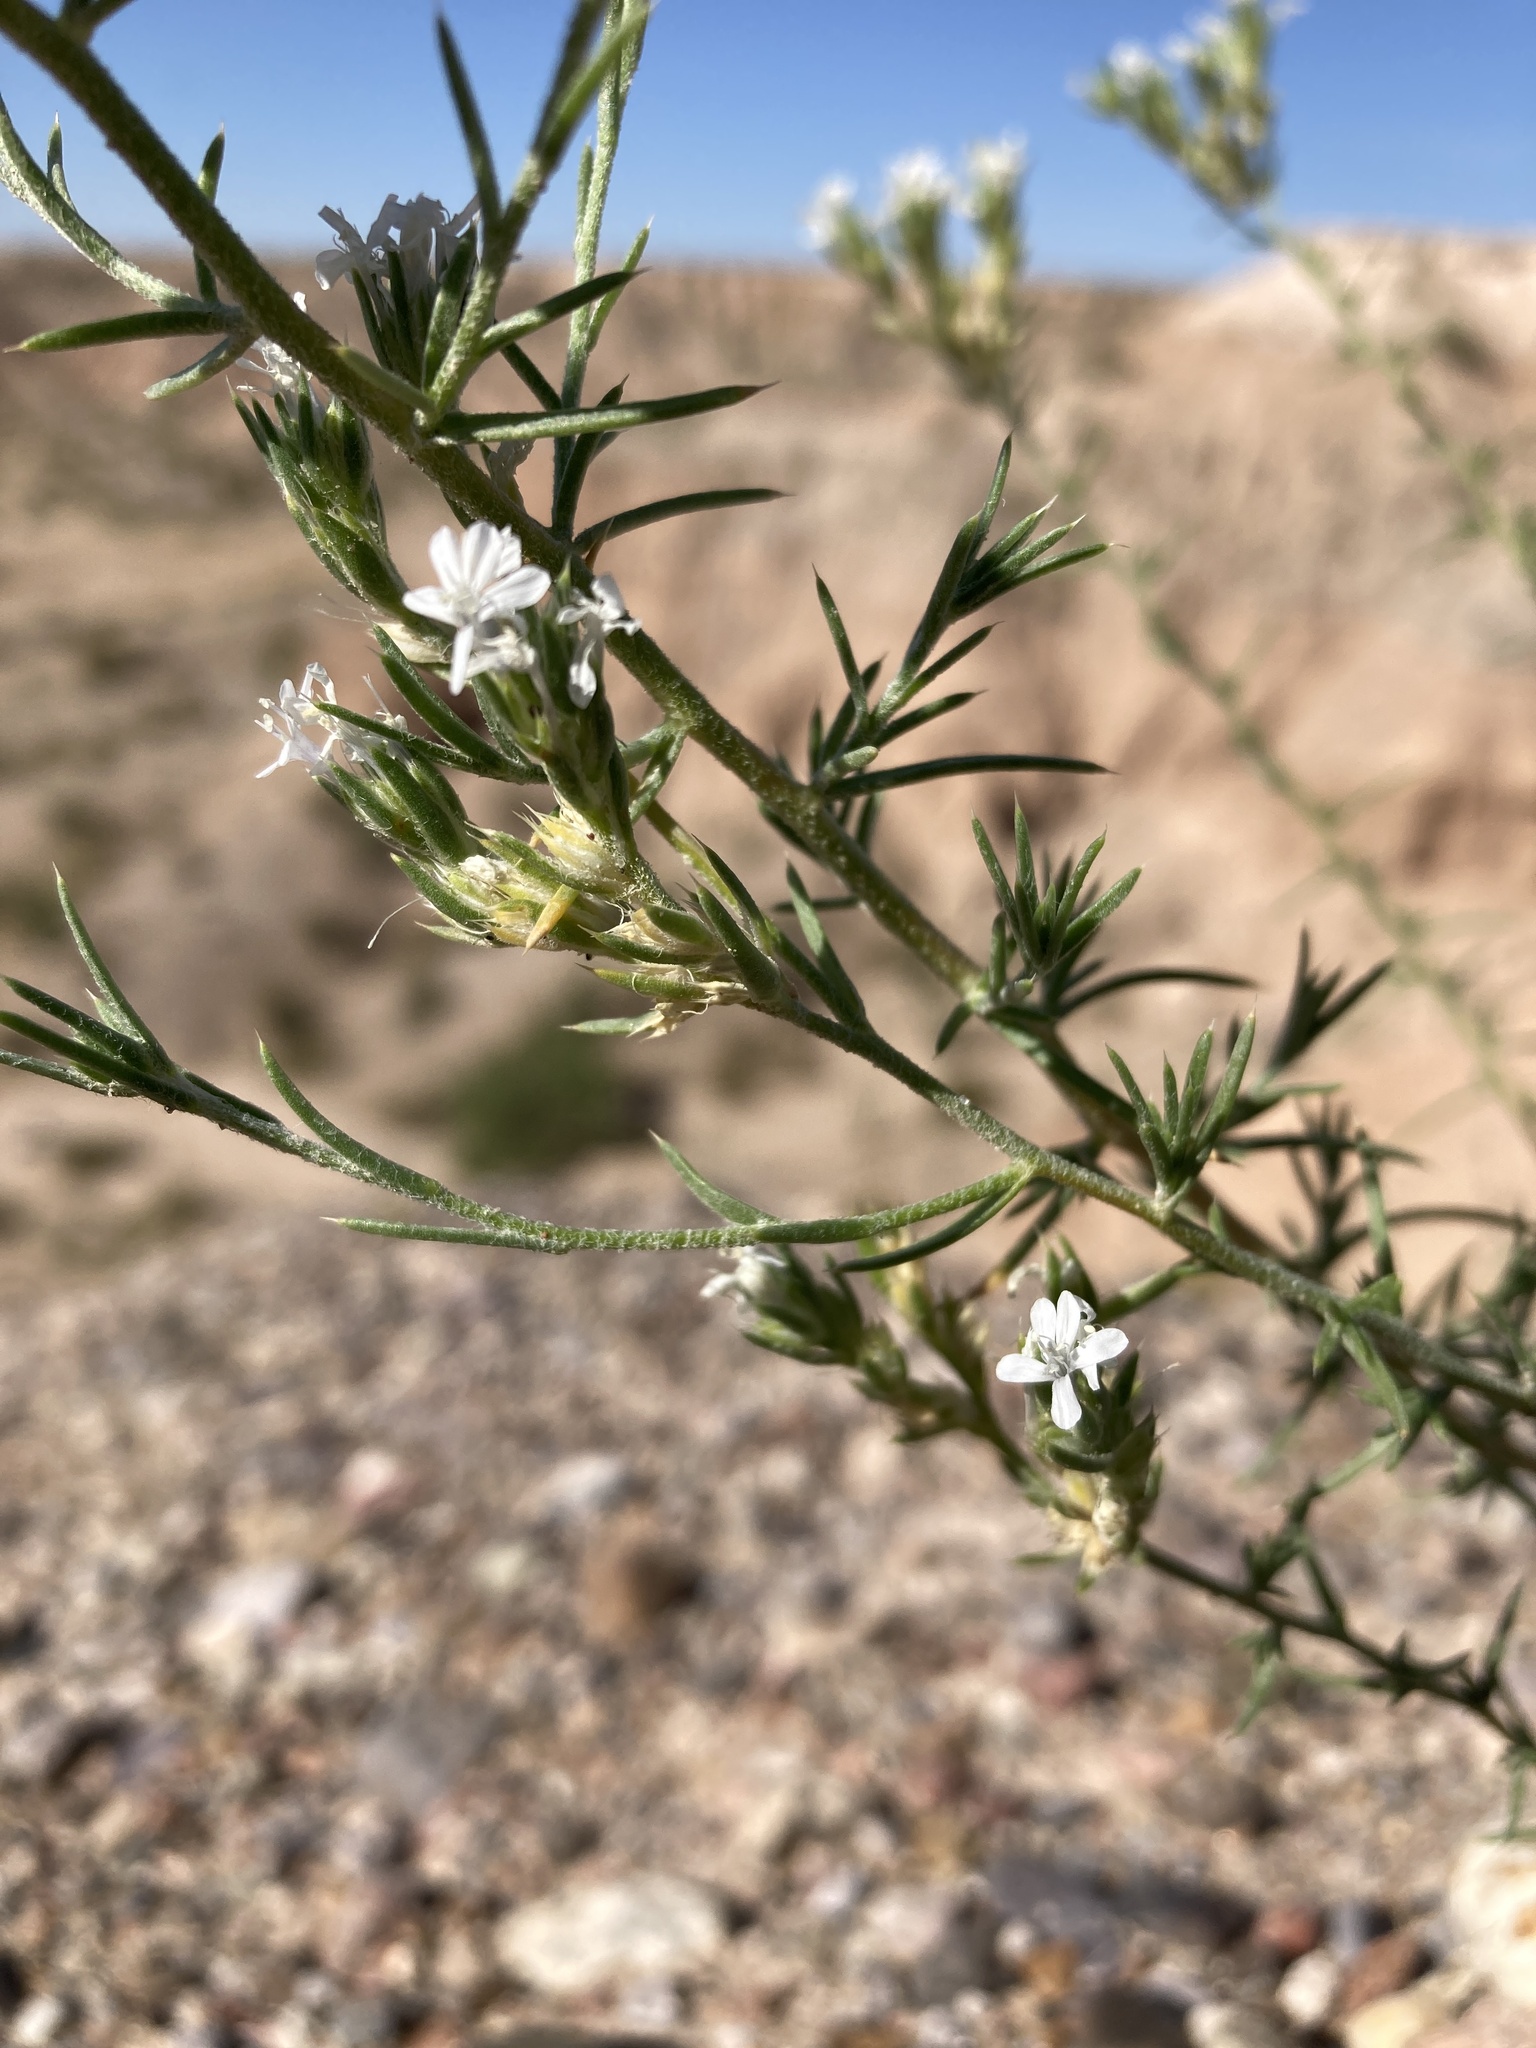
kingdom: Plantae
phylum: Tracheophyta
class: Magnoliopsida
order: Ericales
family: Polemoniaceae
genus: Ipomopsis
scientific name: Ipomopsis wrightii
